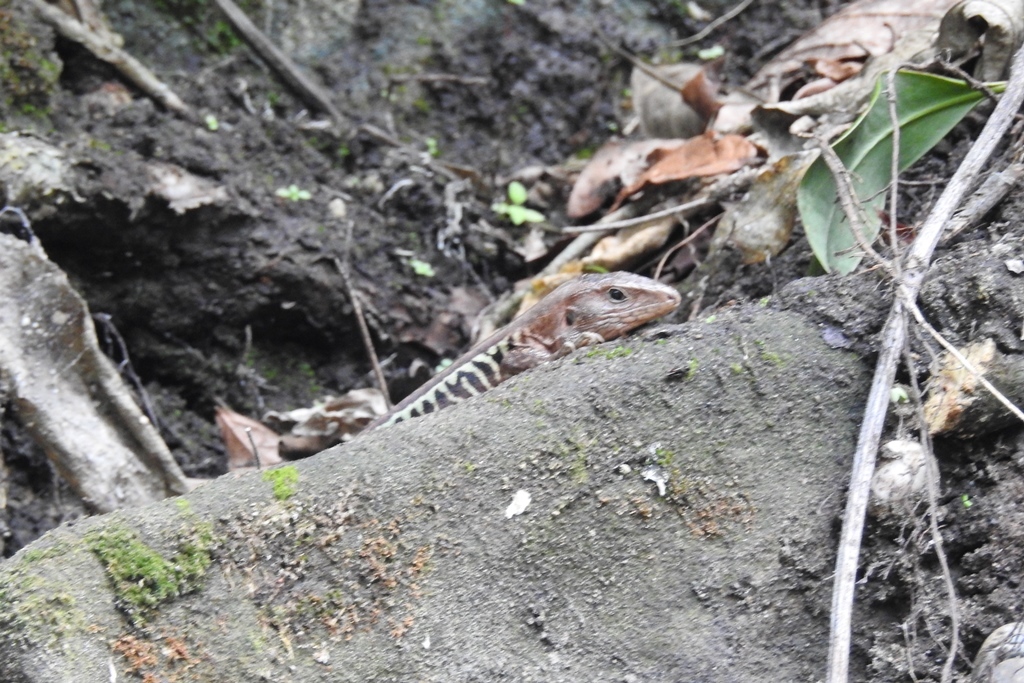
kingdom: Animalia
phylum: Chordata
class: Squamata
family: Teiidae
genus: Holcosus
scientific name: Holcosus undulatus
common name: Rainbow ameiva
